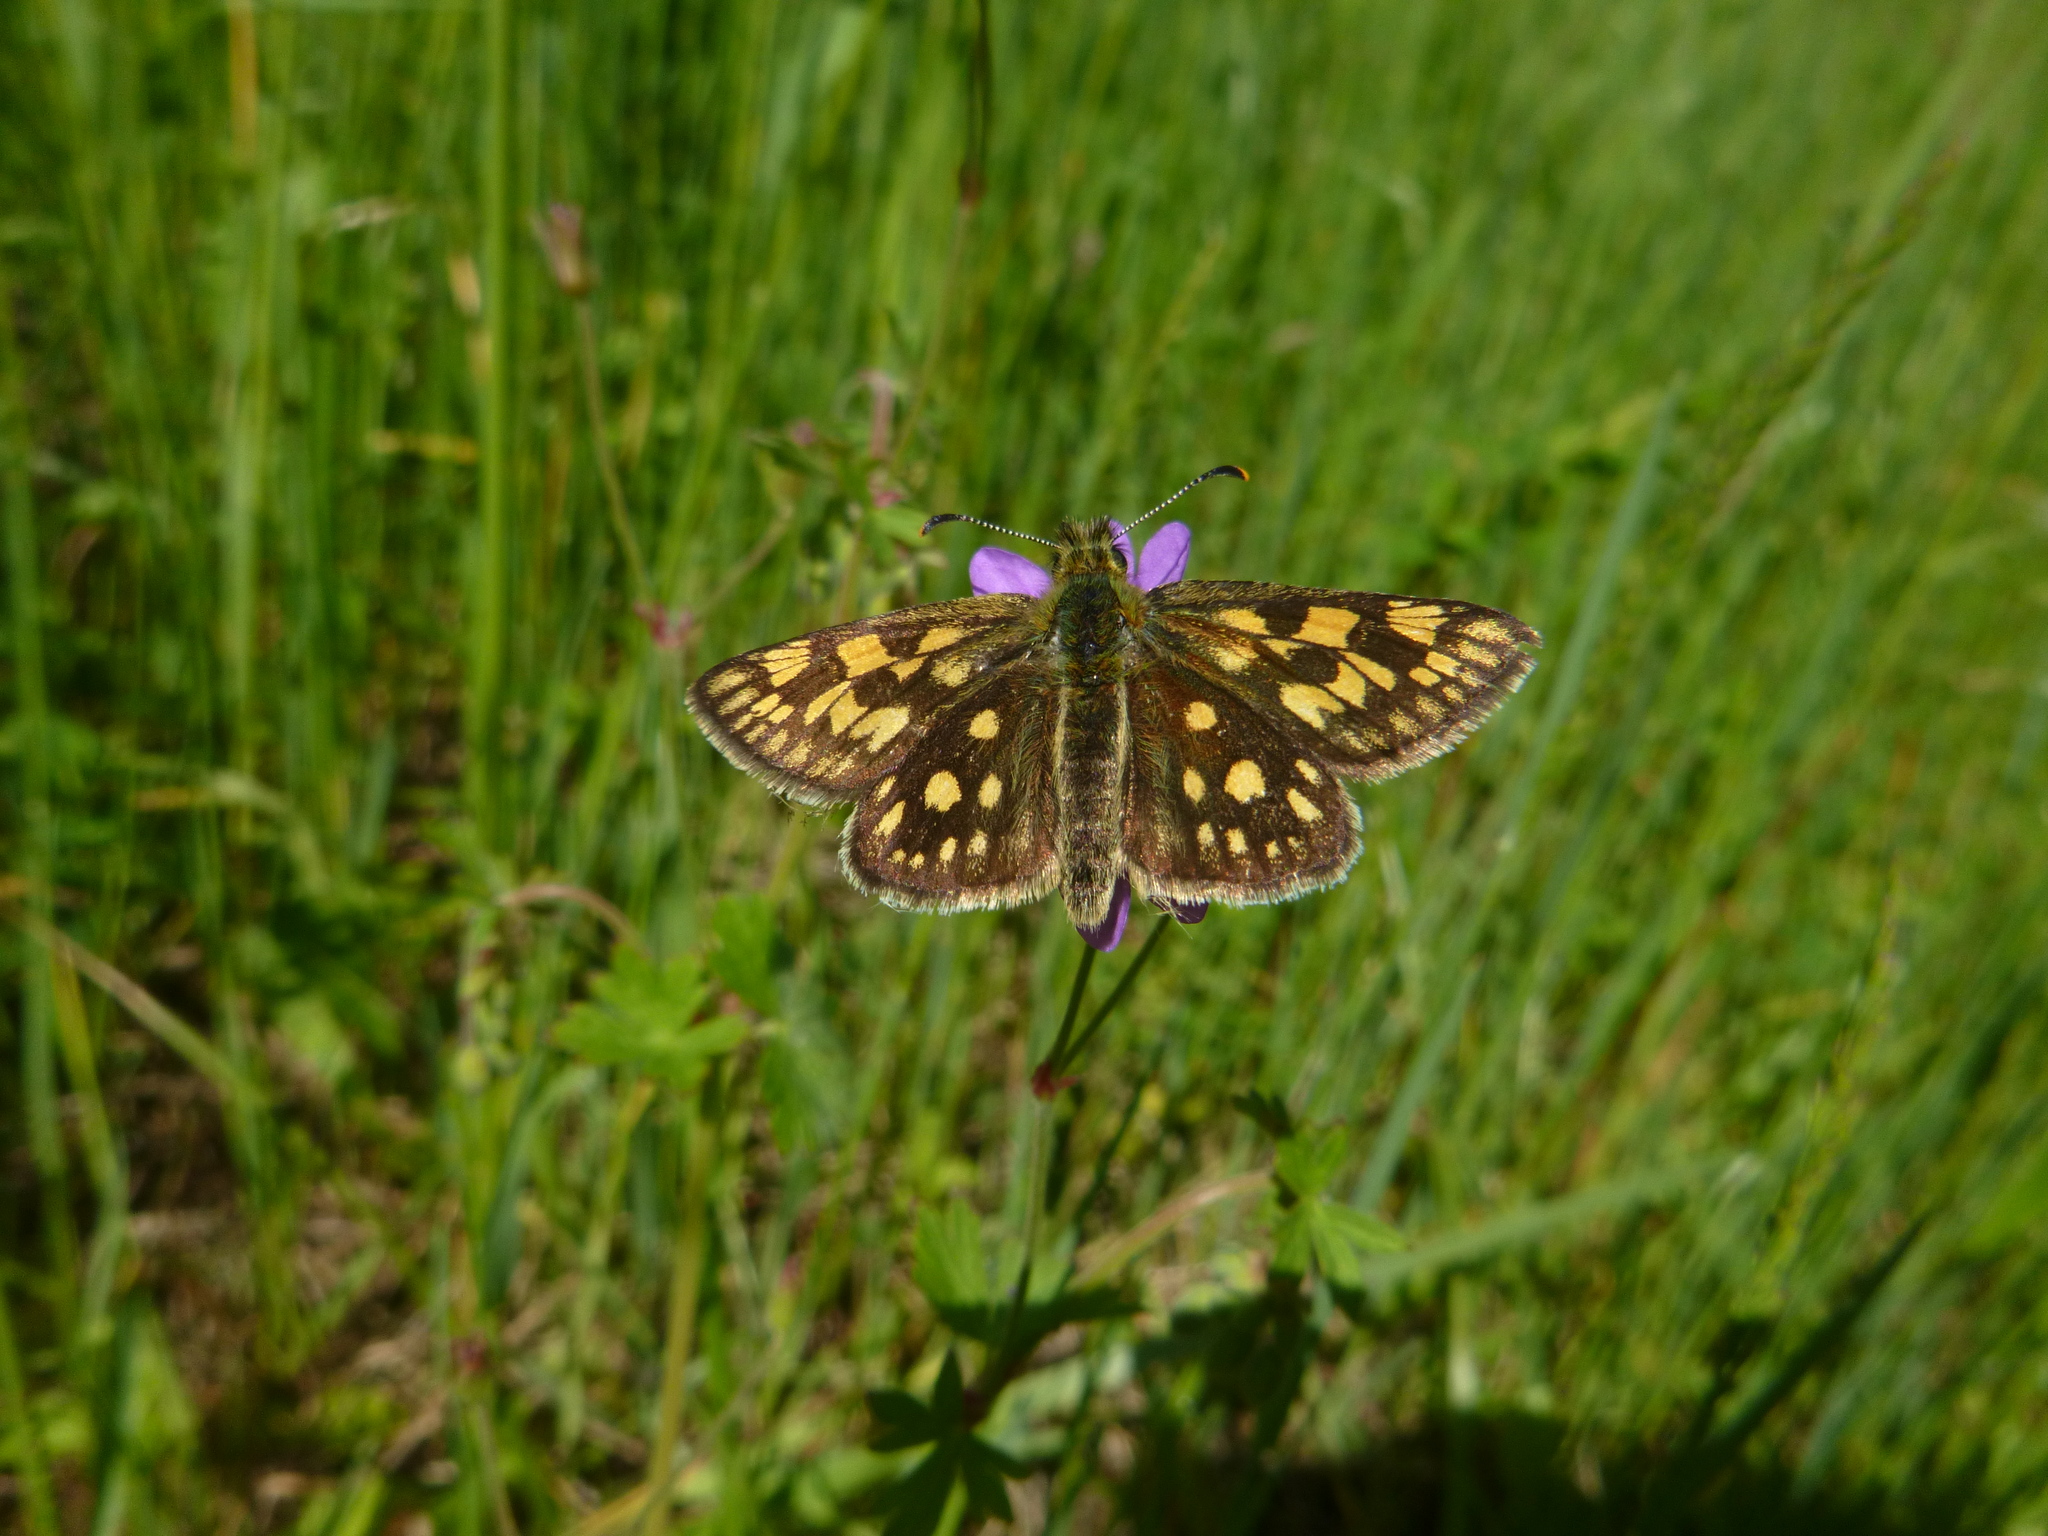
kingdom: Animalia
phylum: Arthropoda
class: Insecta
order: Lepidoptera
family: Hesperiidae
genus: Carterocephalus
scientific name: Carterocephalus palaemon
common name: Chequered skipper
